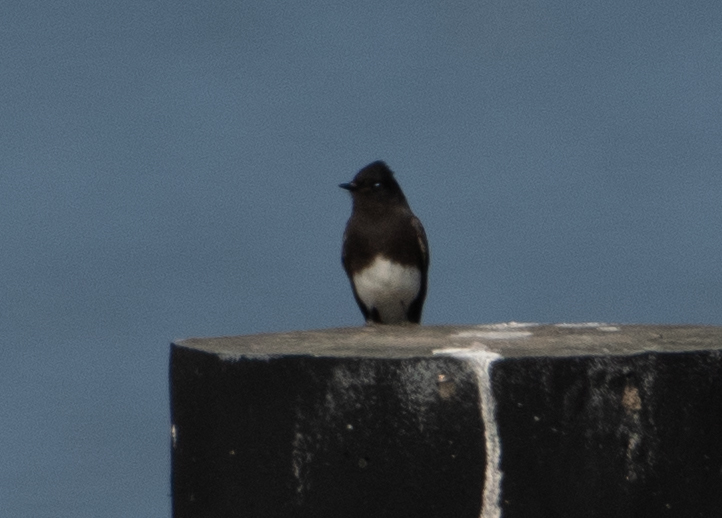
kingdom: Animalia
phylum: Chordata
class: Aves
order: Passeriformes
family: Tyrannidae
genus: Sayornis
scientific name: Sayornis nigricans
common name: Black phoebe
